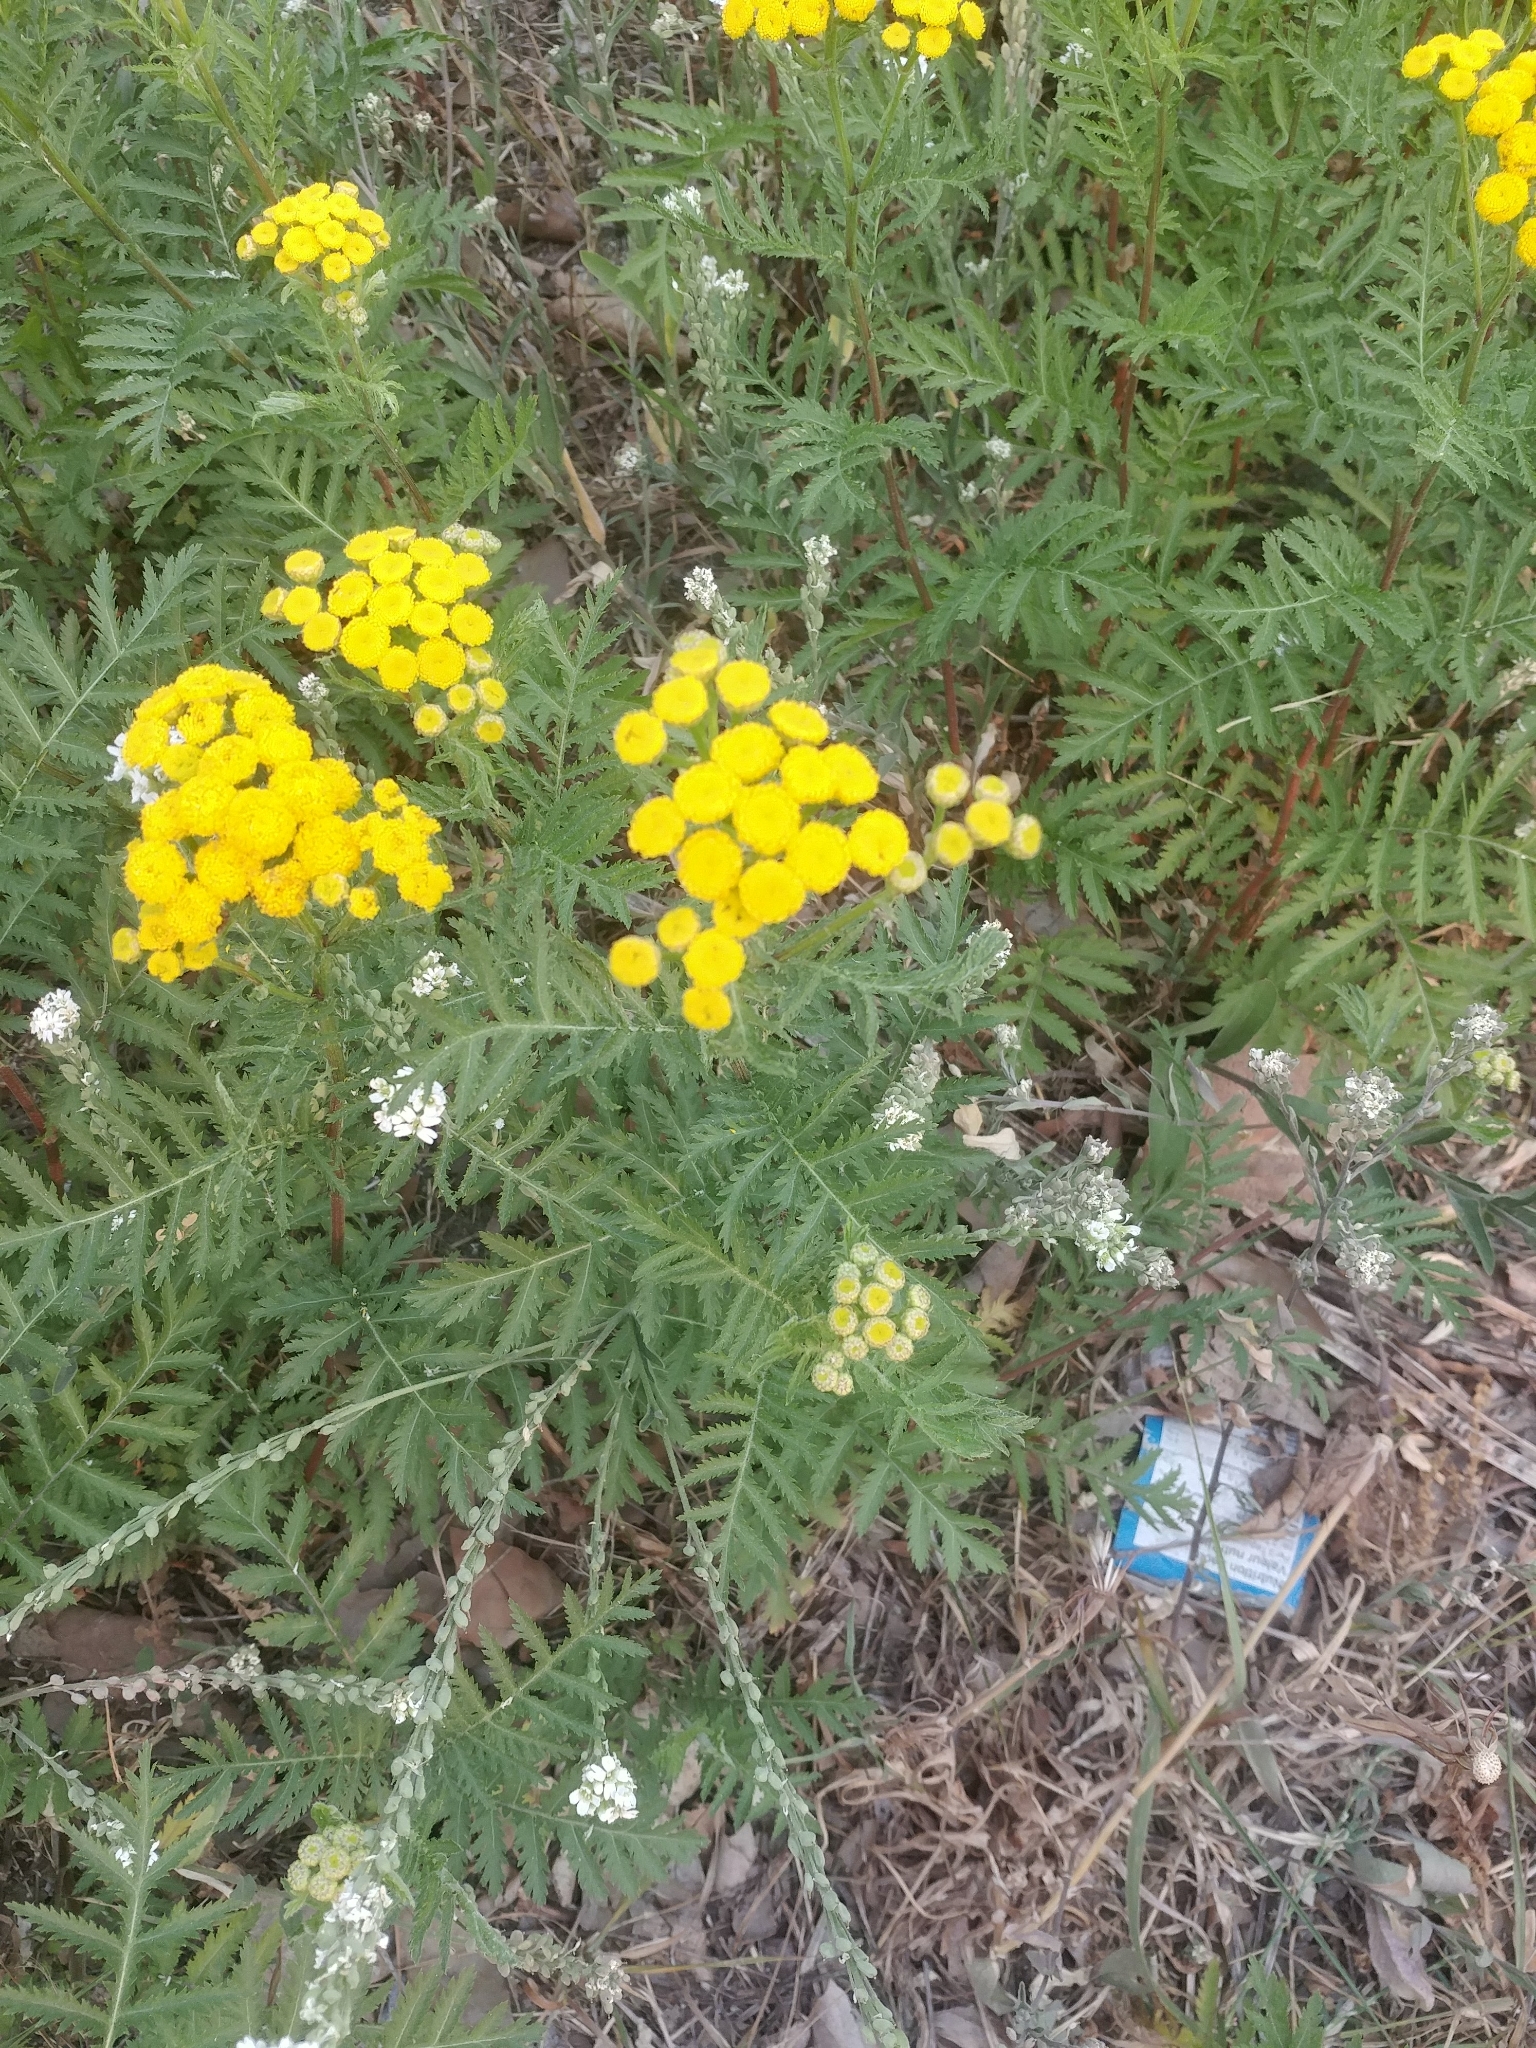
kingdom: Plantae
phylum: Tracheophyta
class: Magnoliopsida
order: Asterales
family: Asteraceae
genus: Tanacetum
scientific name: Tanacetum vulgare
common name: Common tansy
